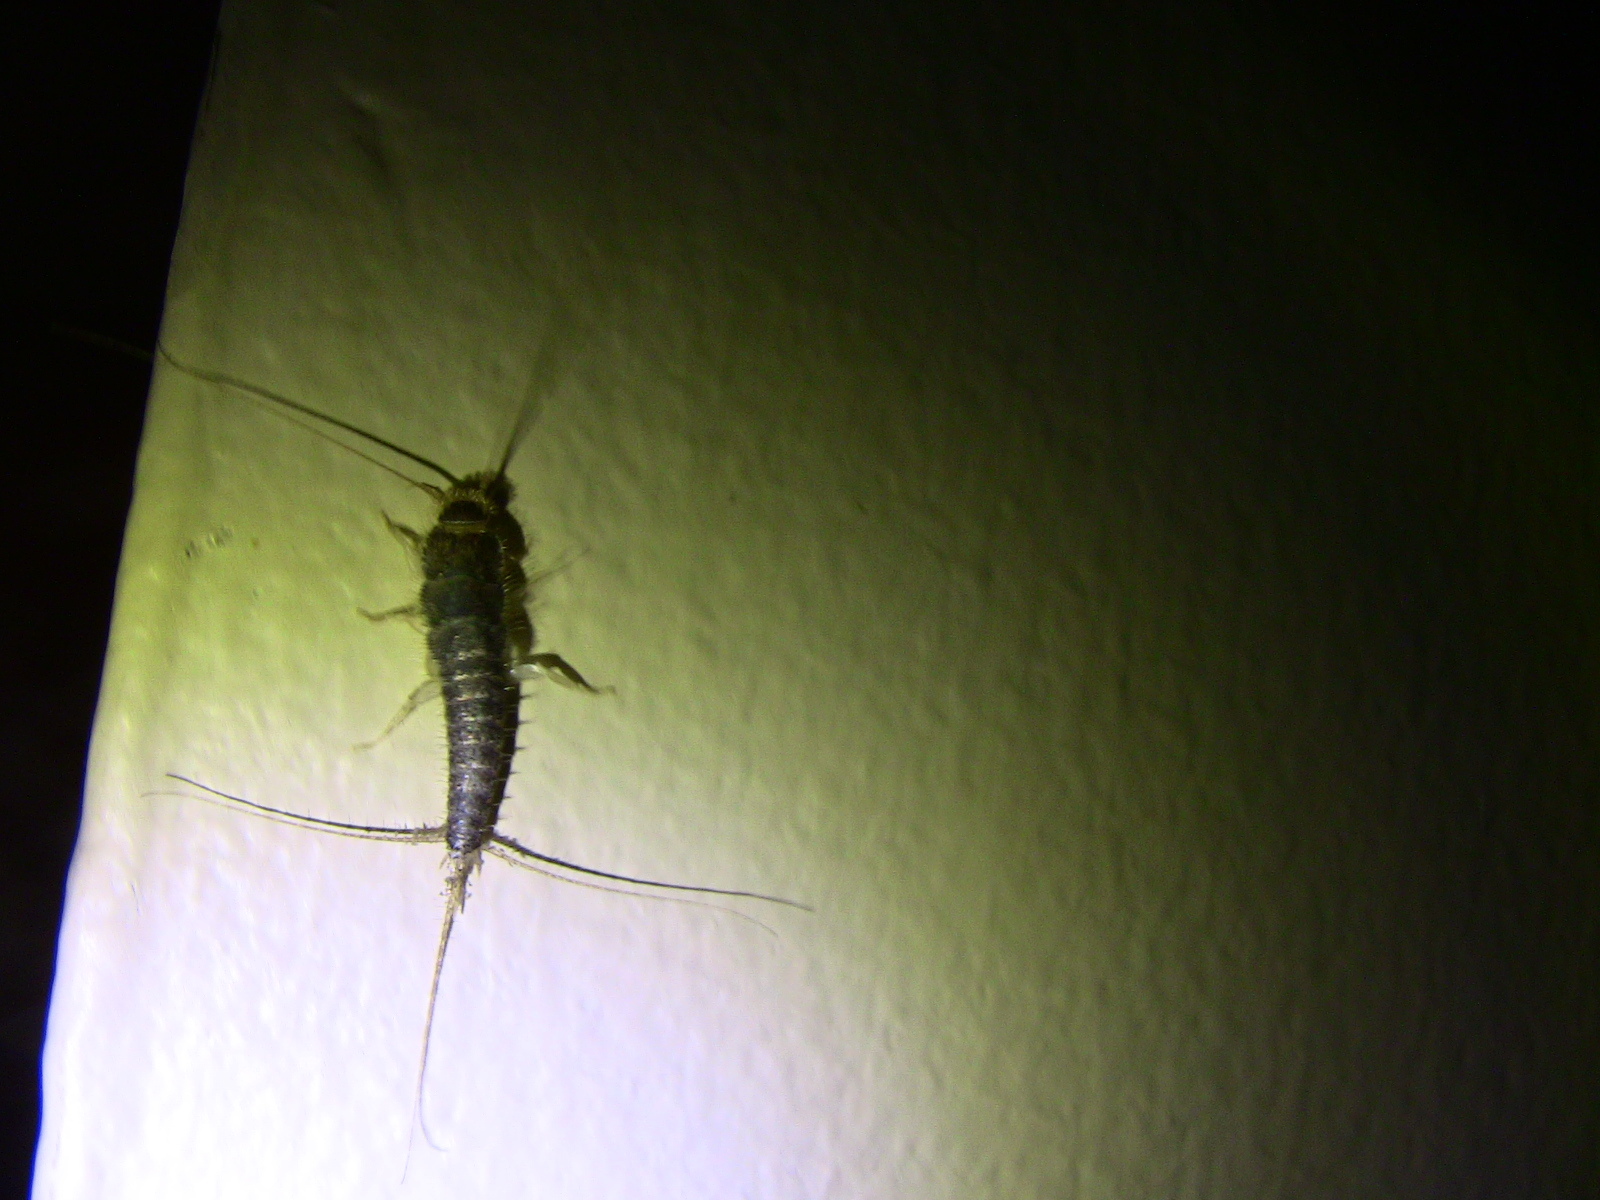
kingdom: Animalia
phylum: Arthropoda
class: Insecta
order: Zygentoma
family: Lepismatidae
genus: Ctenolepisma
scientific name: Ctenolepisma longicaudatum
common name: Silverfish
